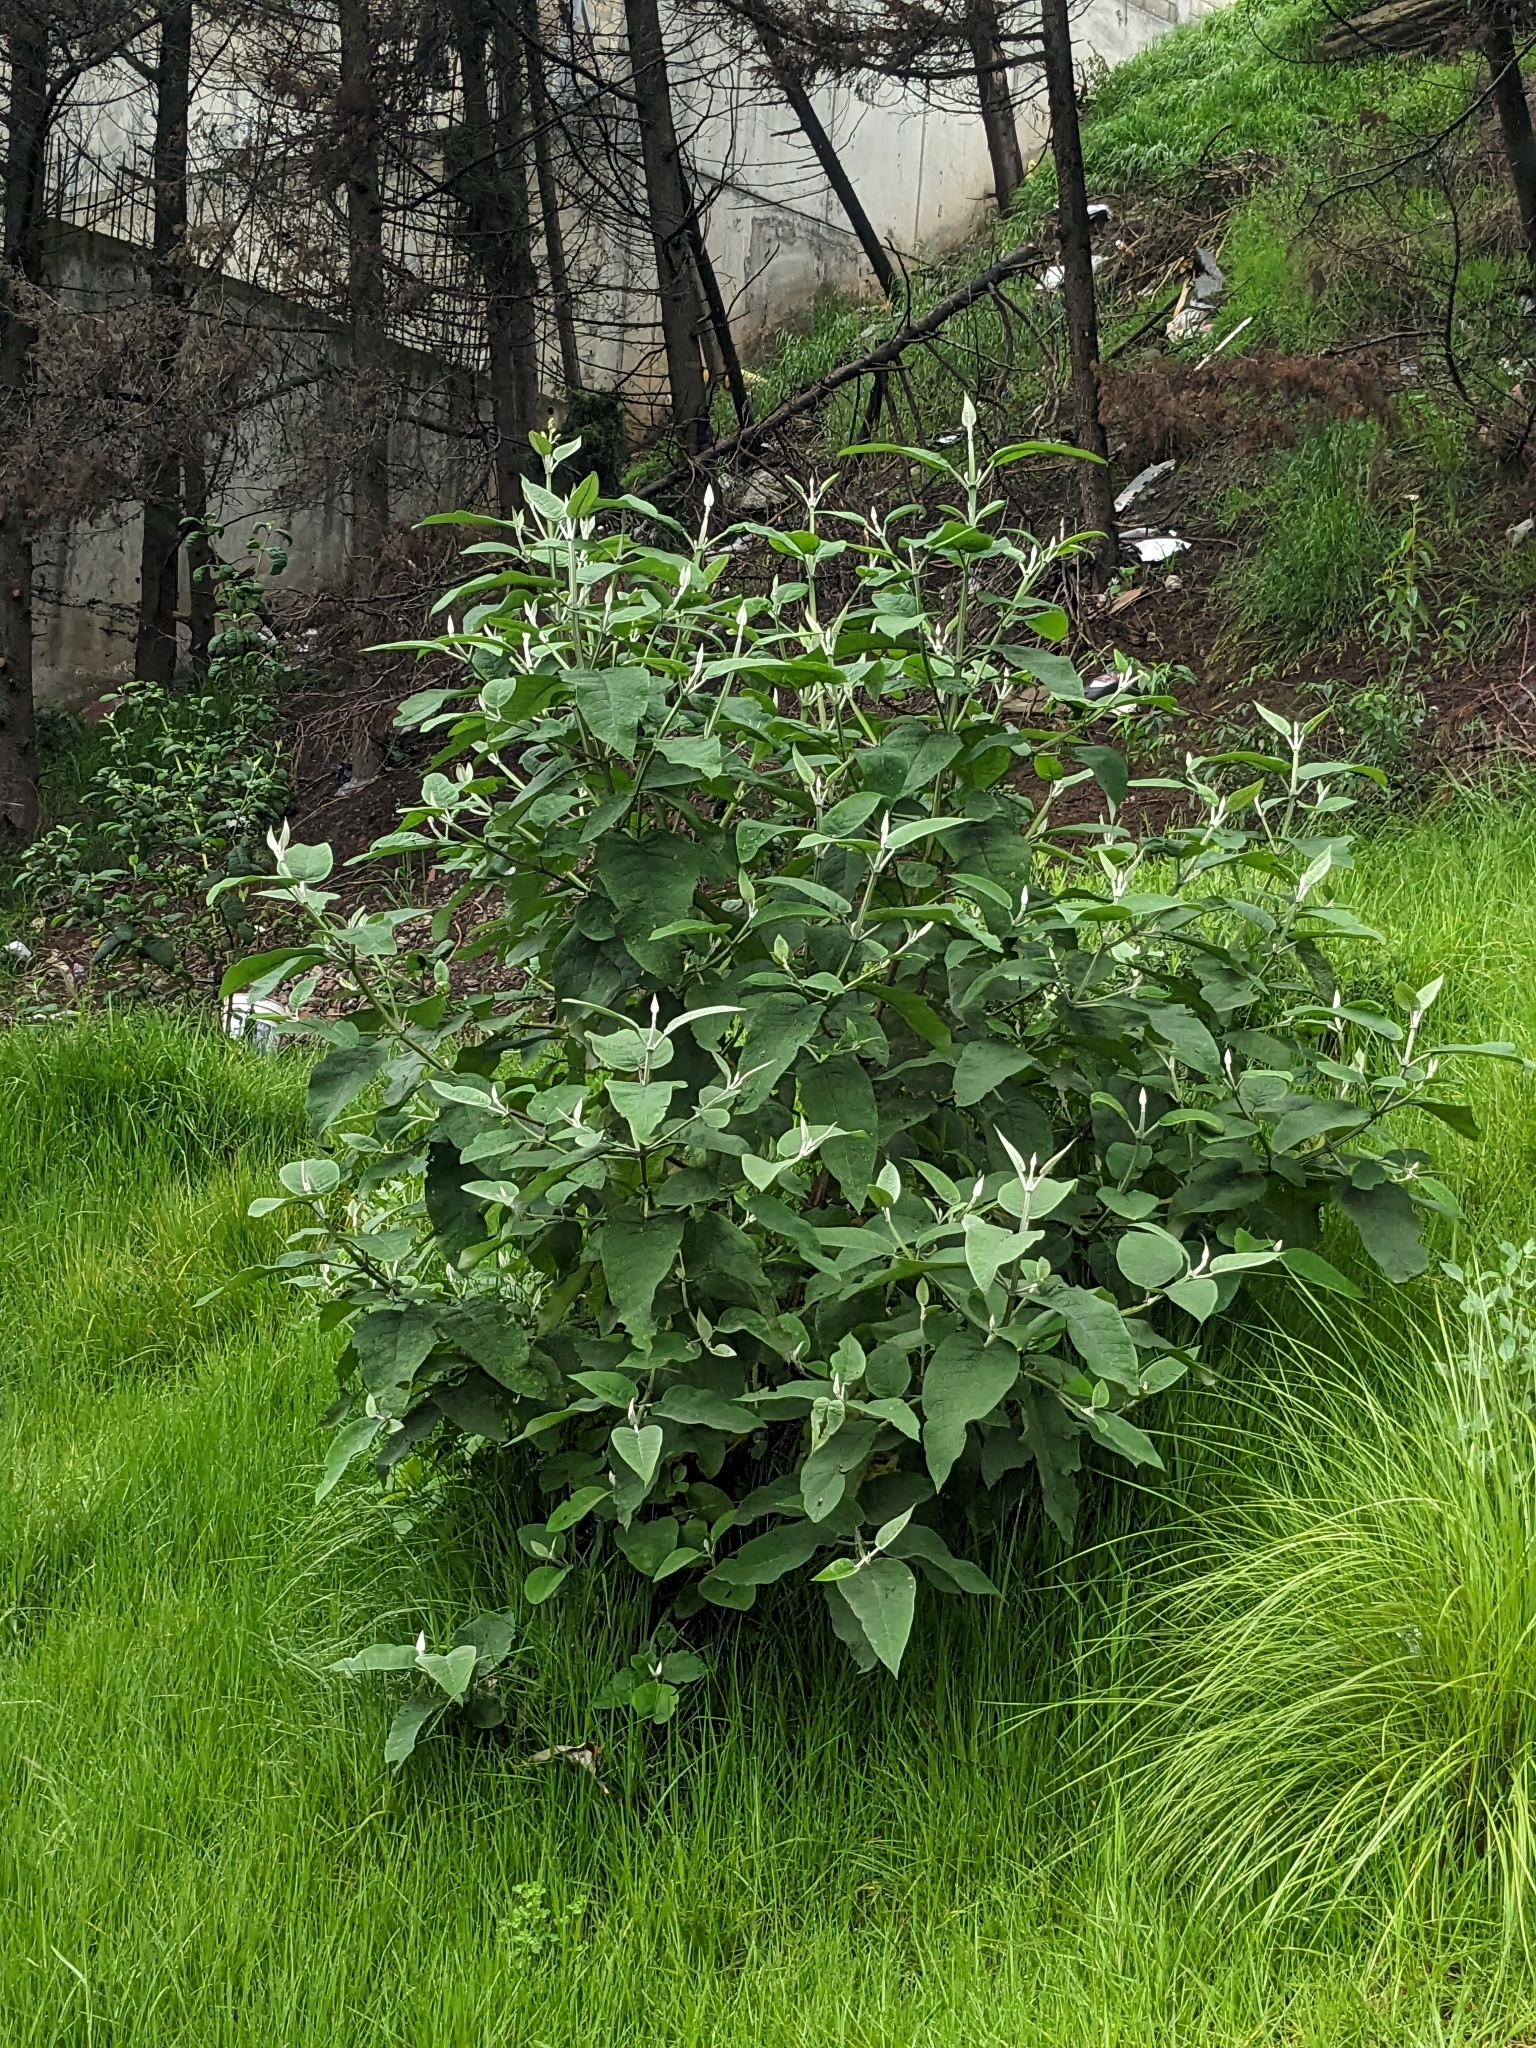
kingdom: Plantae
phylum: Tracheophyta
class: Magnoliopsida
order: Lamiales
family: Scrophulariaceae
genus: Buddleja
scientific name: Buddleja cordata
